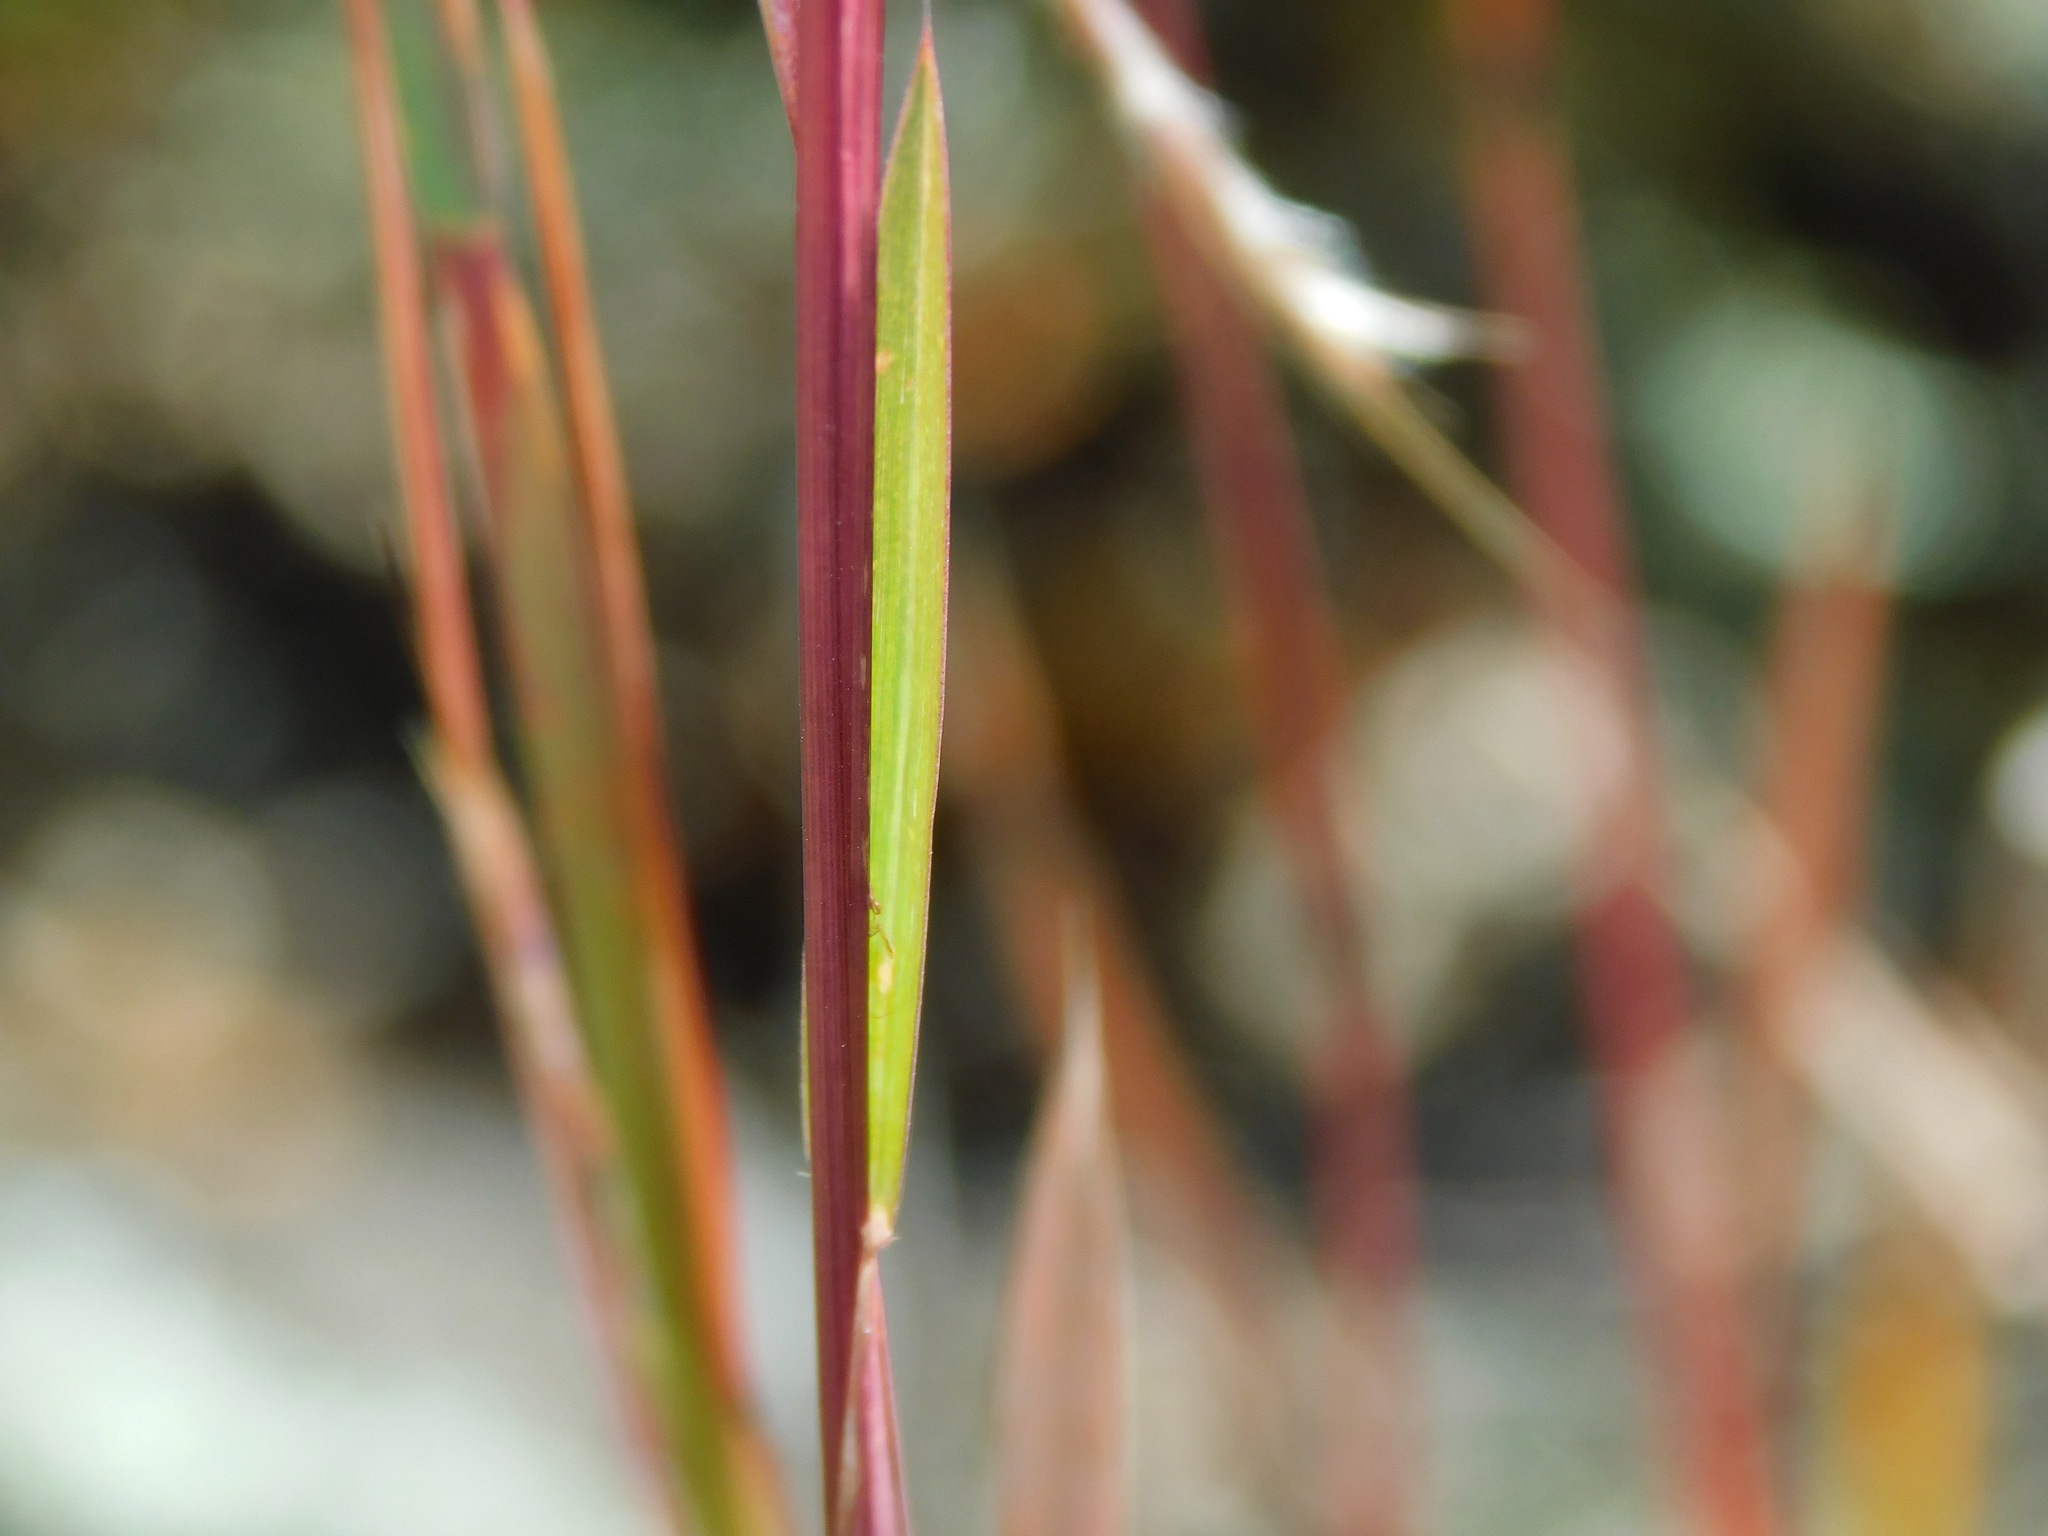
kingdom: Plantae
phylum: Tracheophyta
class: Liliopsida
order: Poales
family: Poaceae
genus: Schizachyrium
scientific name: Schizachyrium scoparium
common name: Little bluestem
